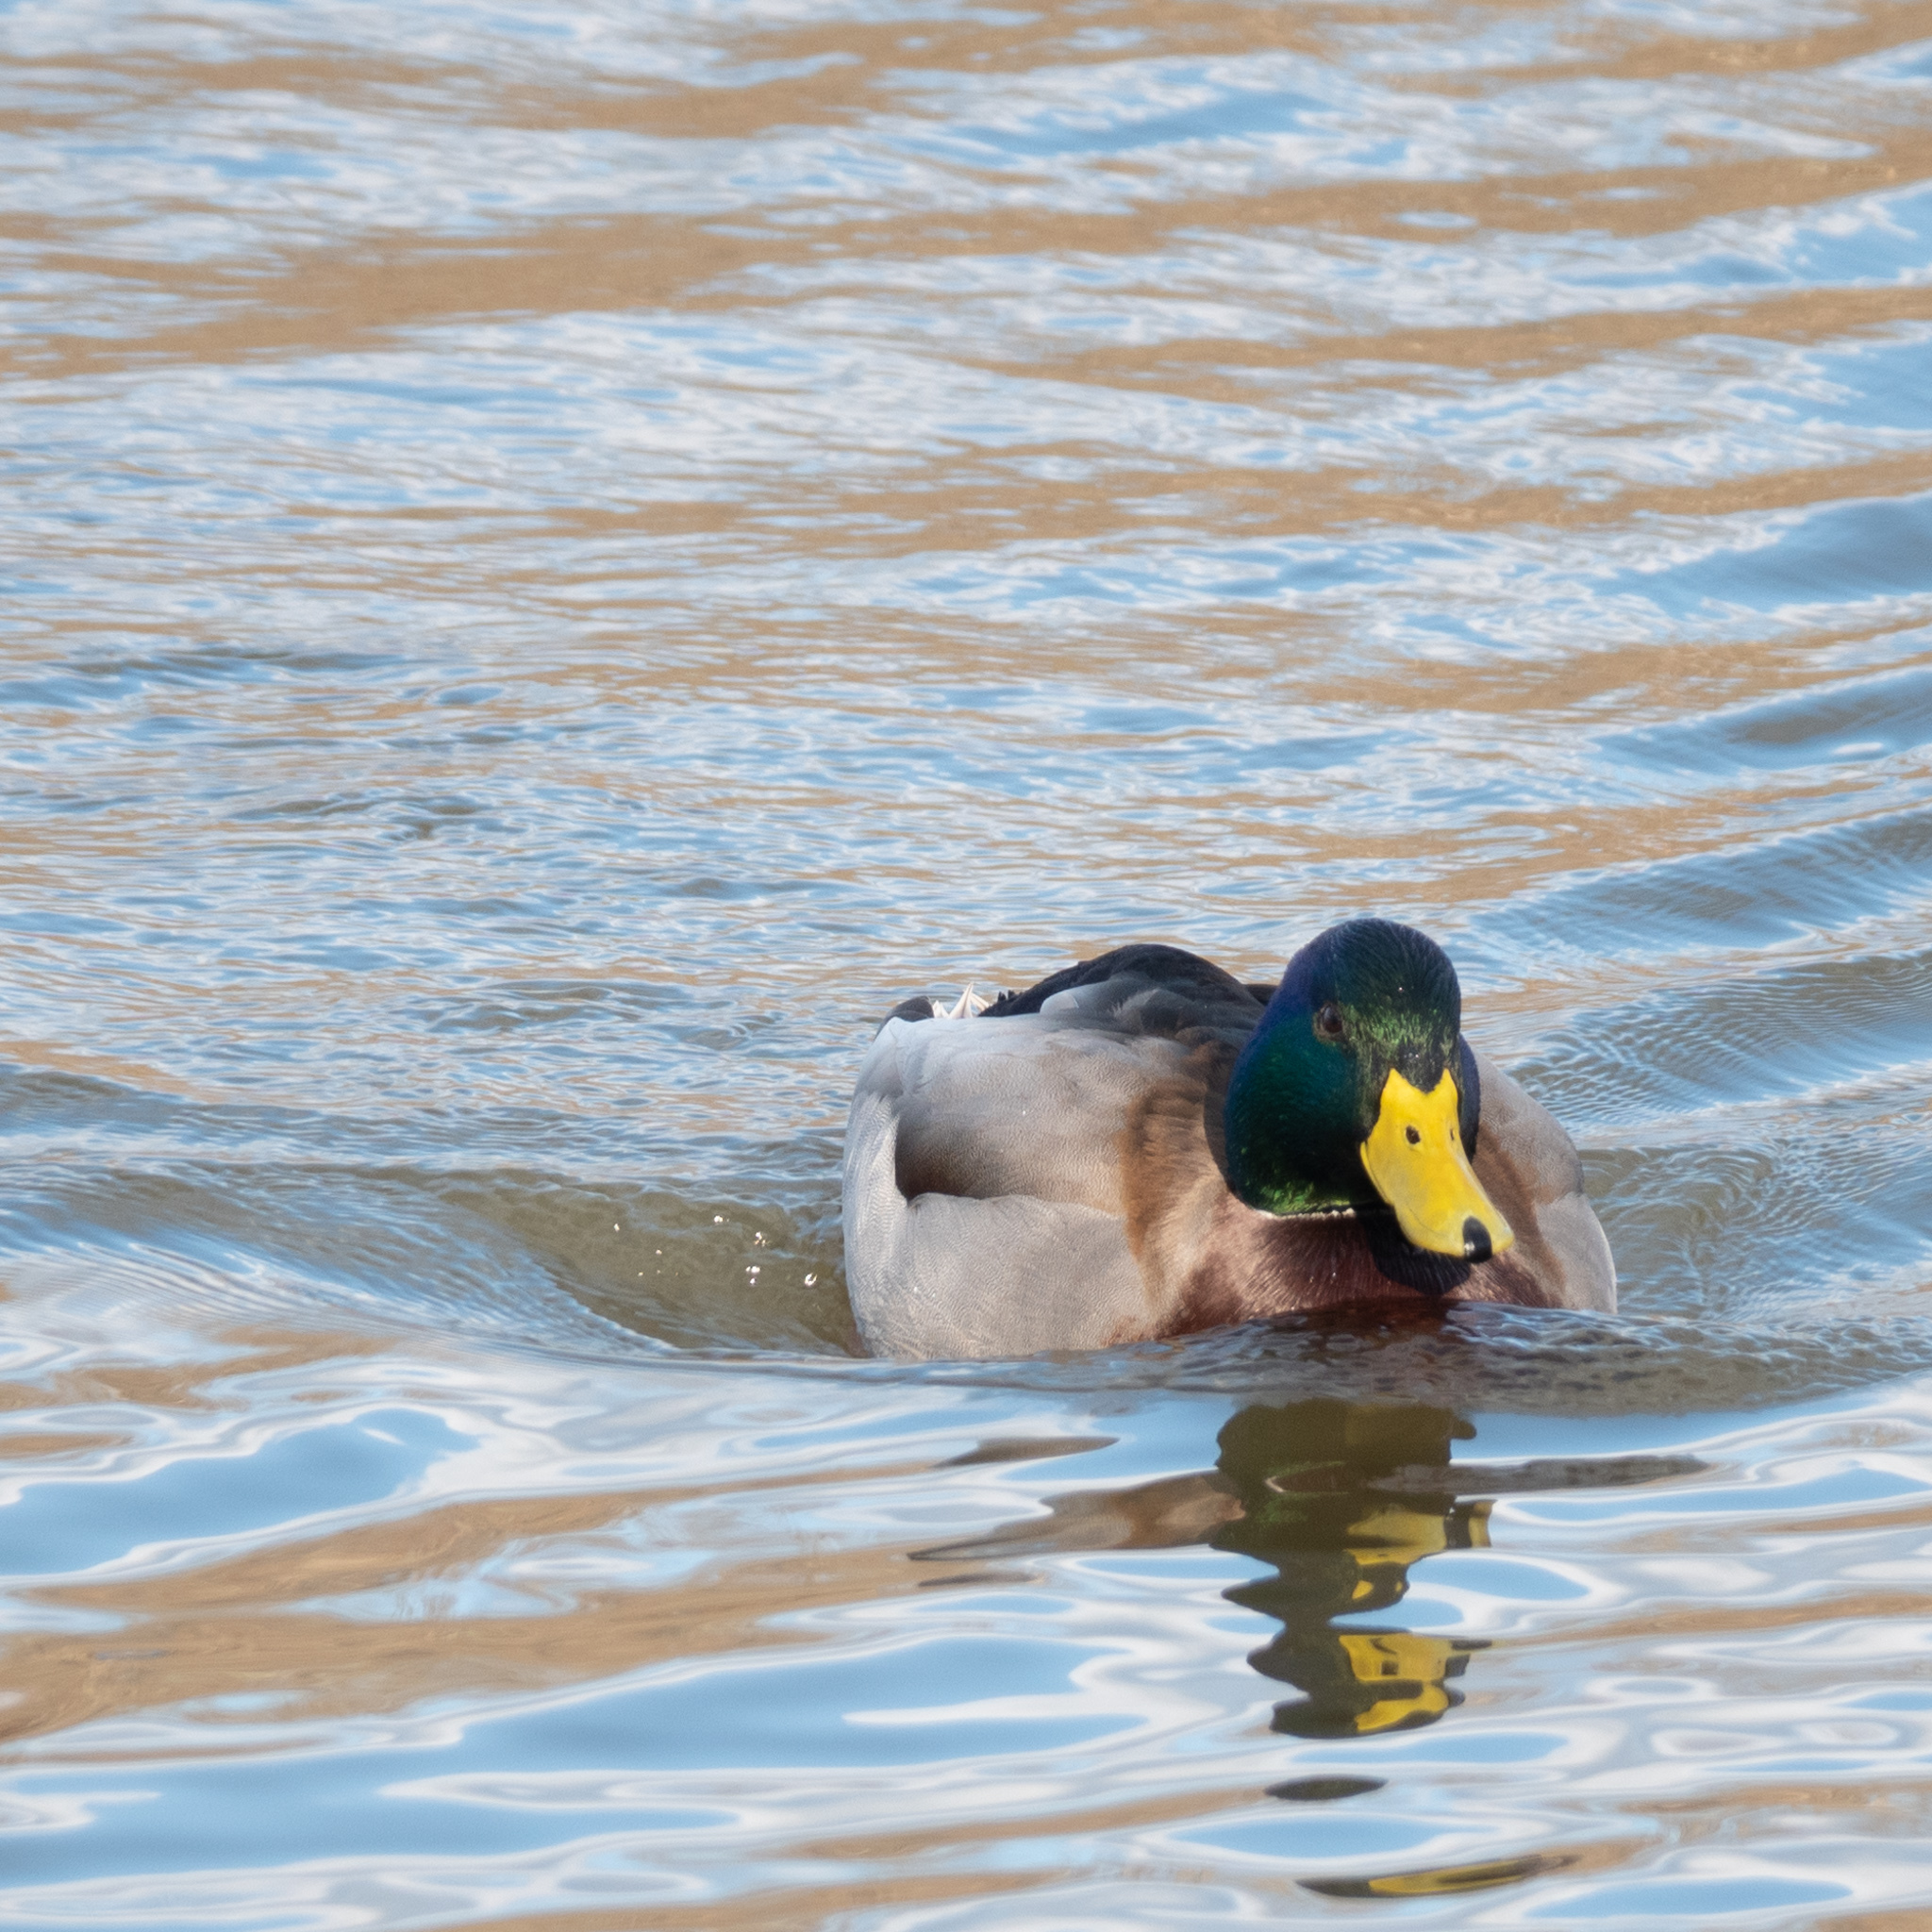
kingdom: Animalia
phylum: Chordata
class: Aves
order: Anseriformes
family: Anatidae
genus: Anas
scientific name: Anas platyrhynchos
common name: Mallard
